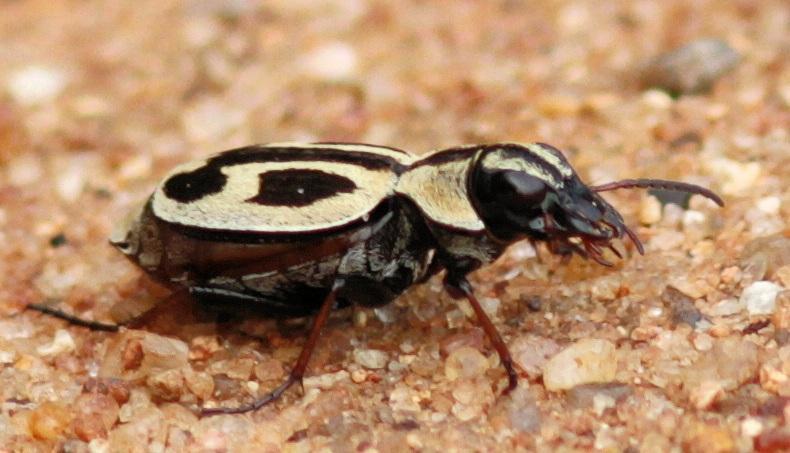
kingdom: Animalia
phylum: Arthropoda
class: Insecta
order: Coleoptera
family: Carabidae
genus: Graphipterus
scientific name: Graphipterus obliteratus
